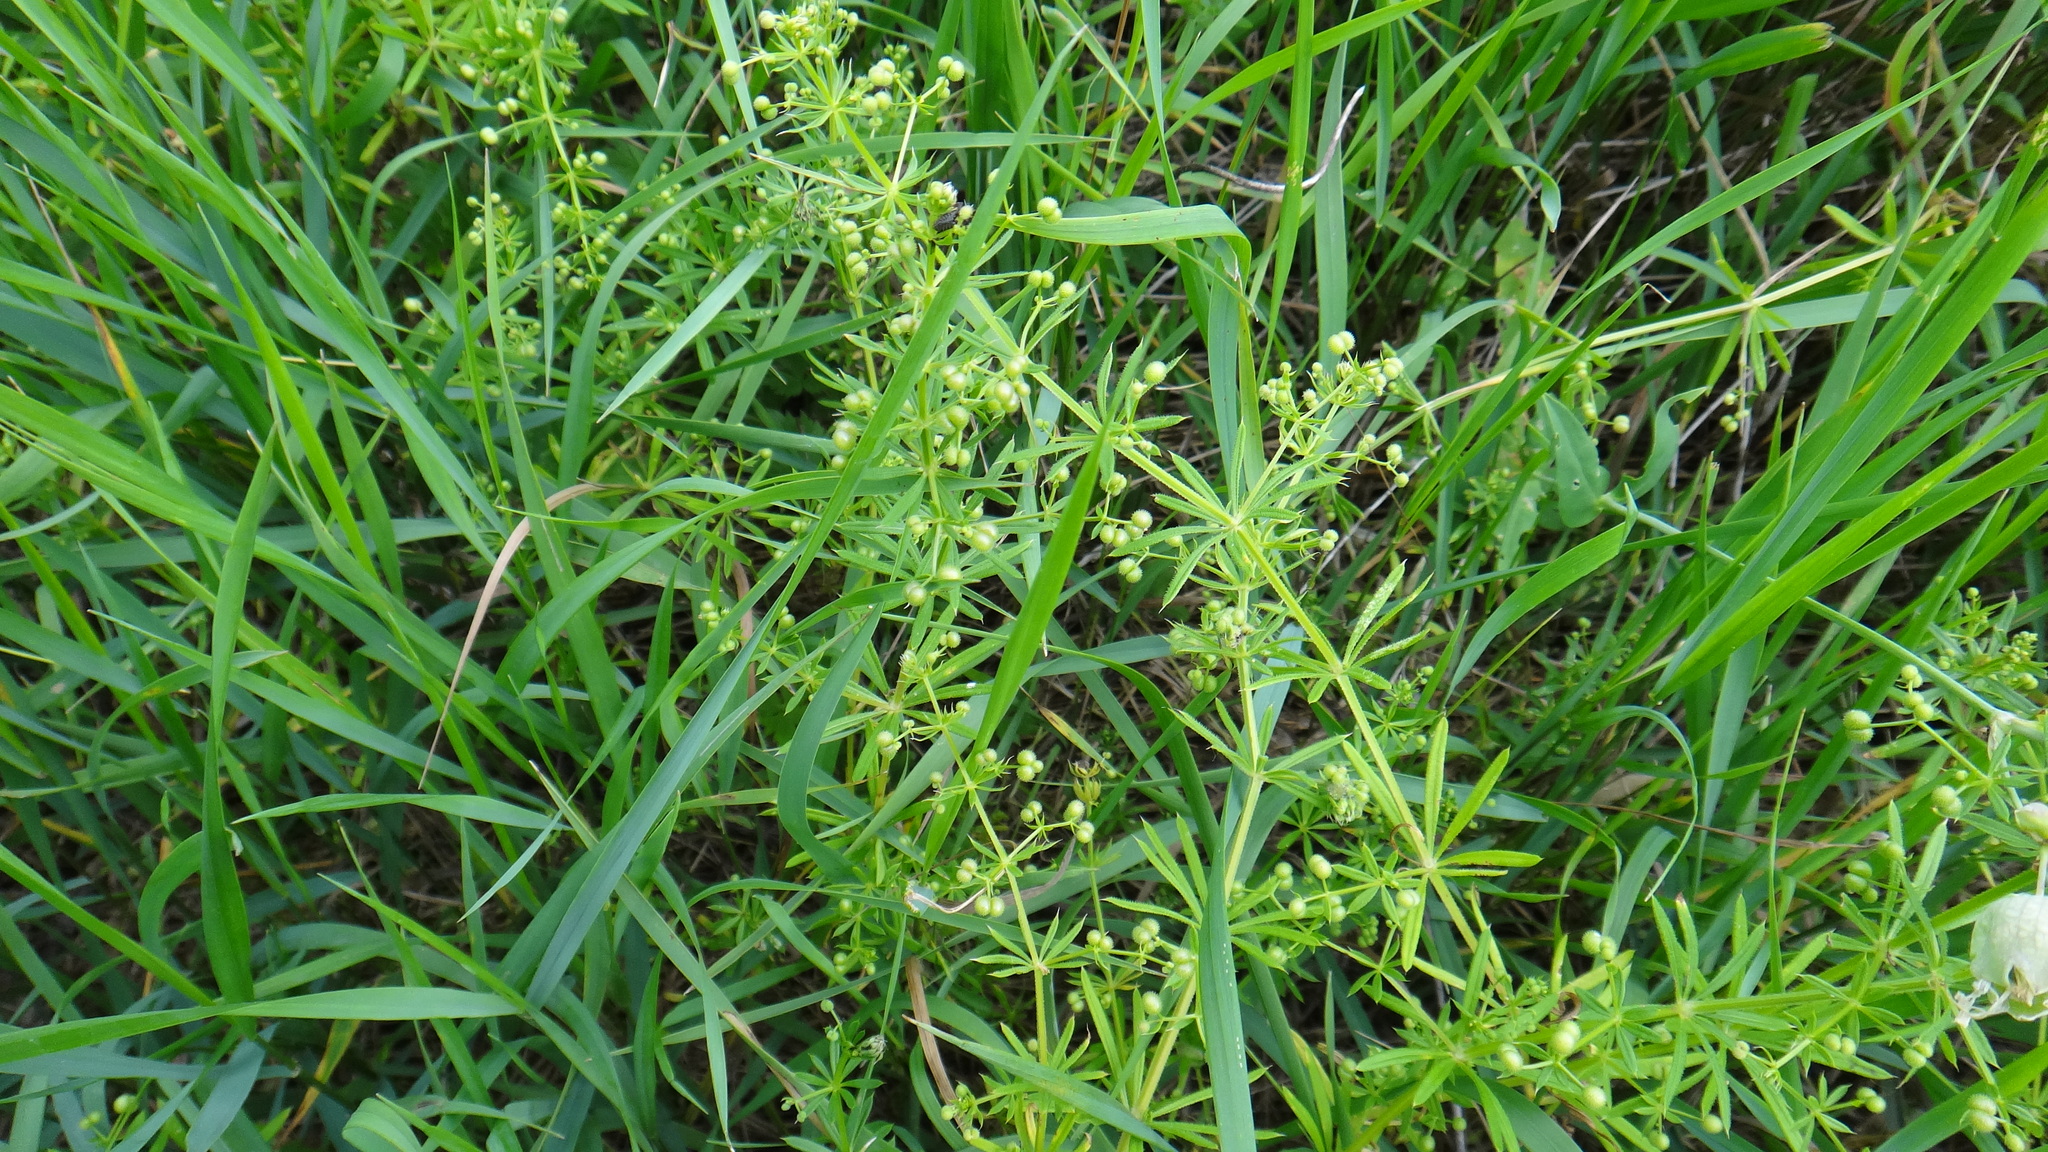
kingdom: Plantae
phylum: Tracheophyta
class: Magnoliopsida
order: Gentianales
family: Rubiaceae
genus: Galium
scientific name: Galium aparine
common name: Cleavers
